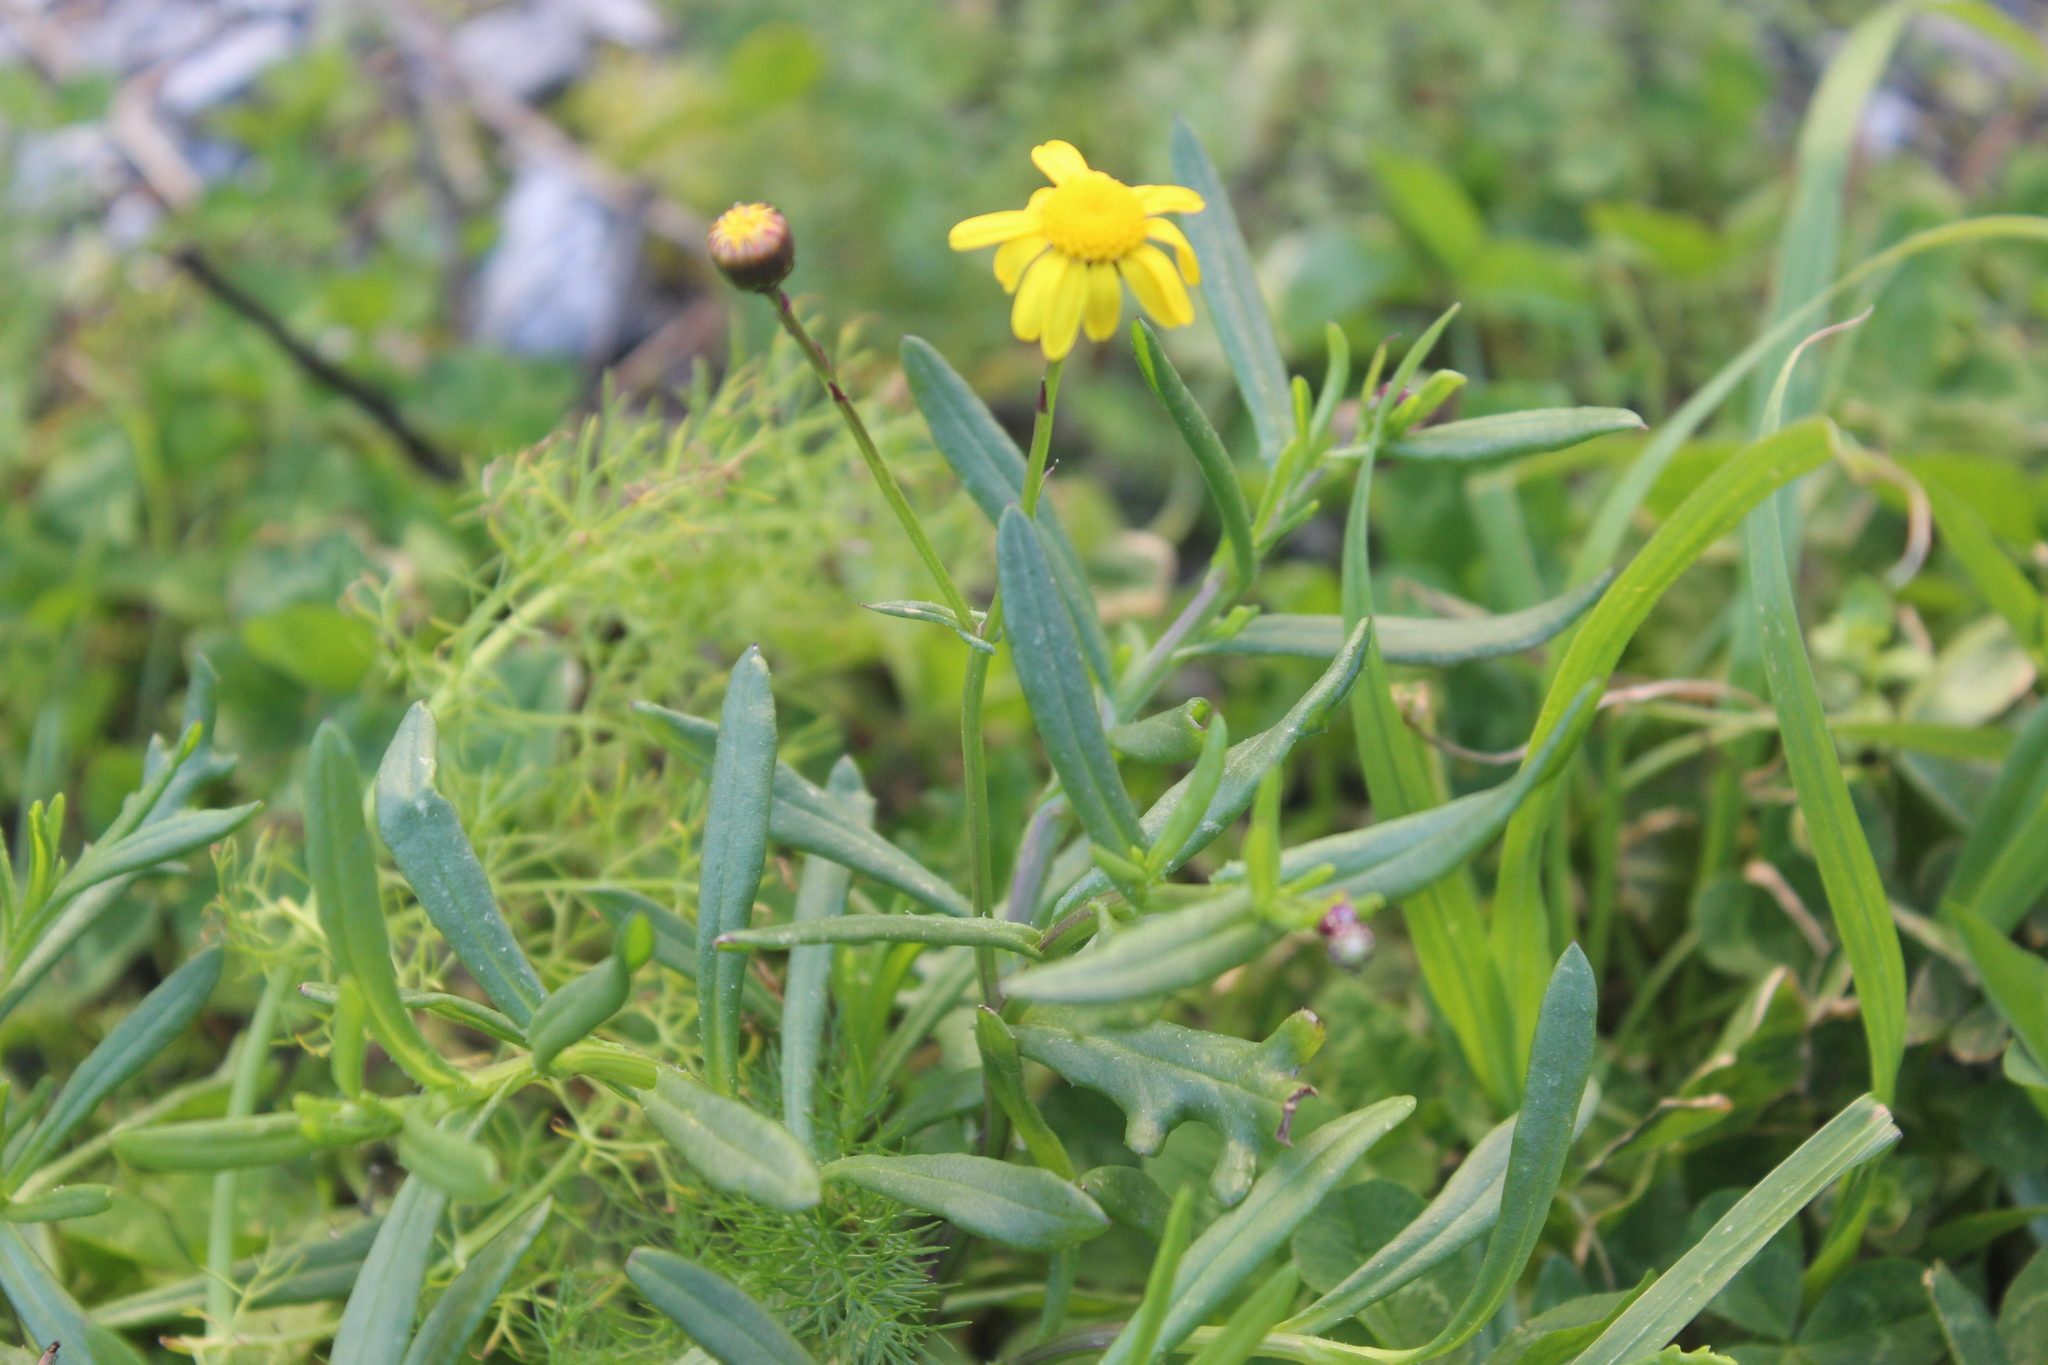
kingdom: Plantae
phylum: Tracheophyta
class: Magnoliopsida
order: Asterales
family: Asteraceae
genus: Senecio
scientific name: Senecio skirrhodon
